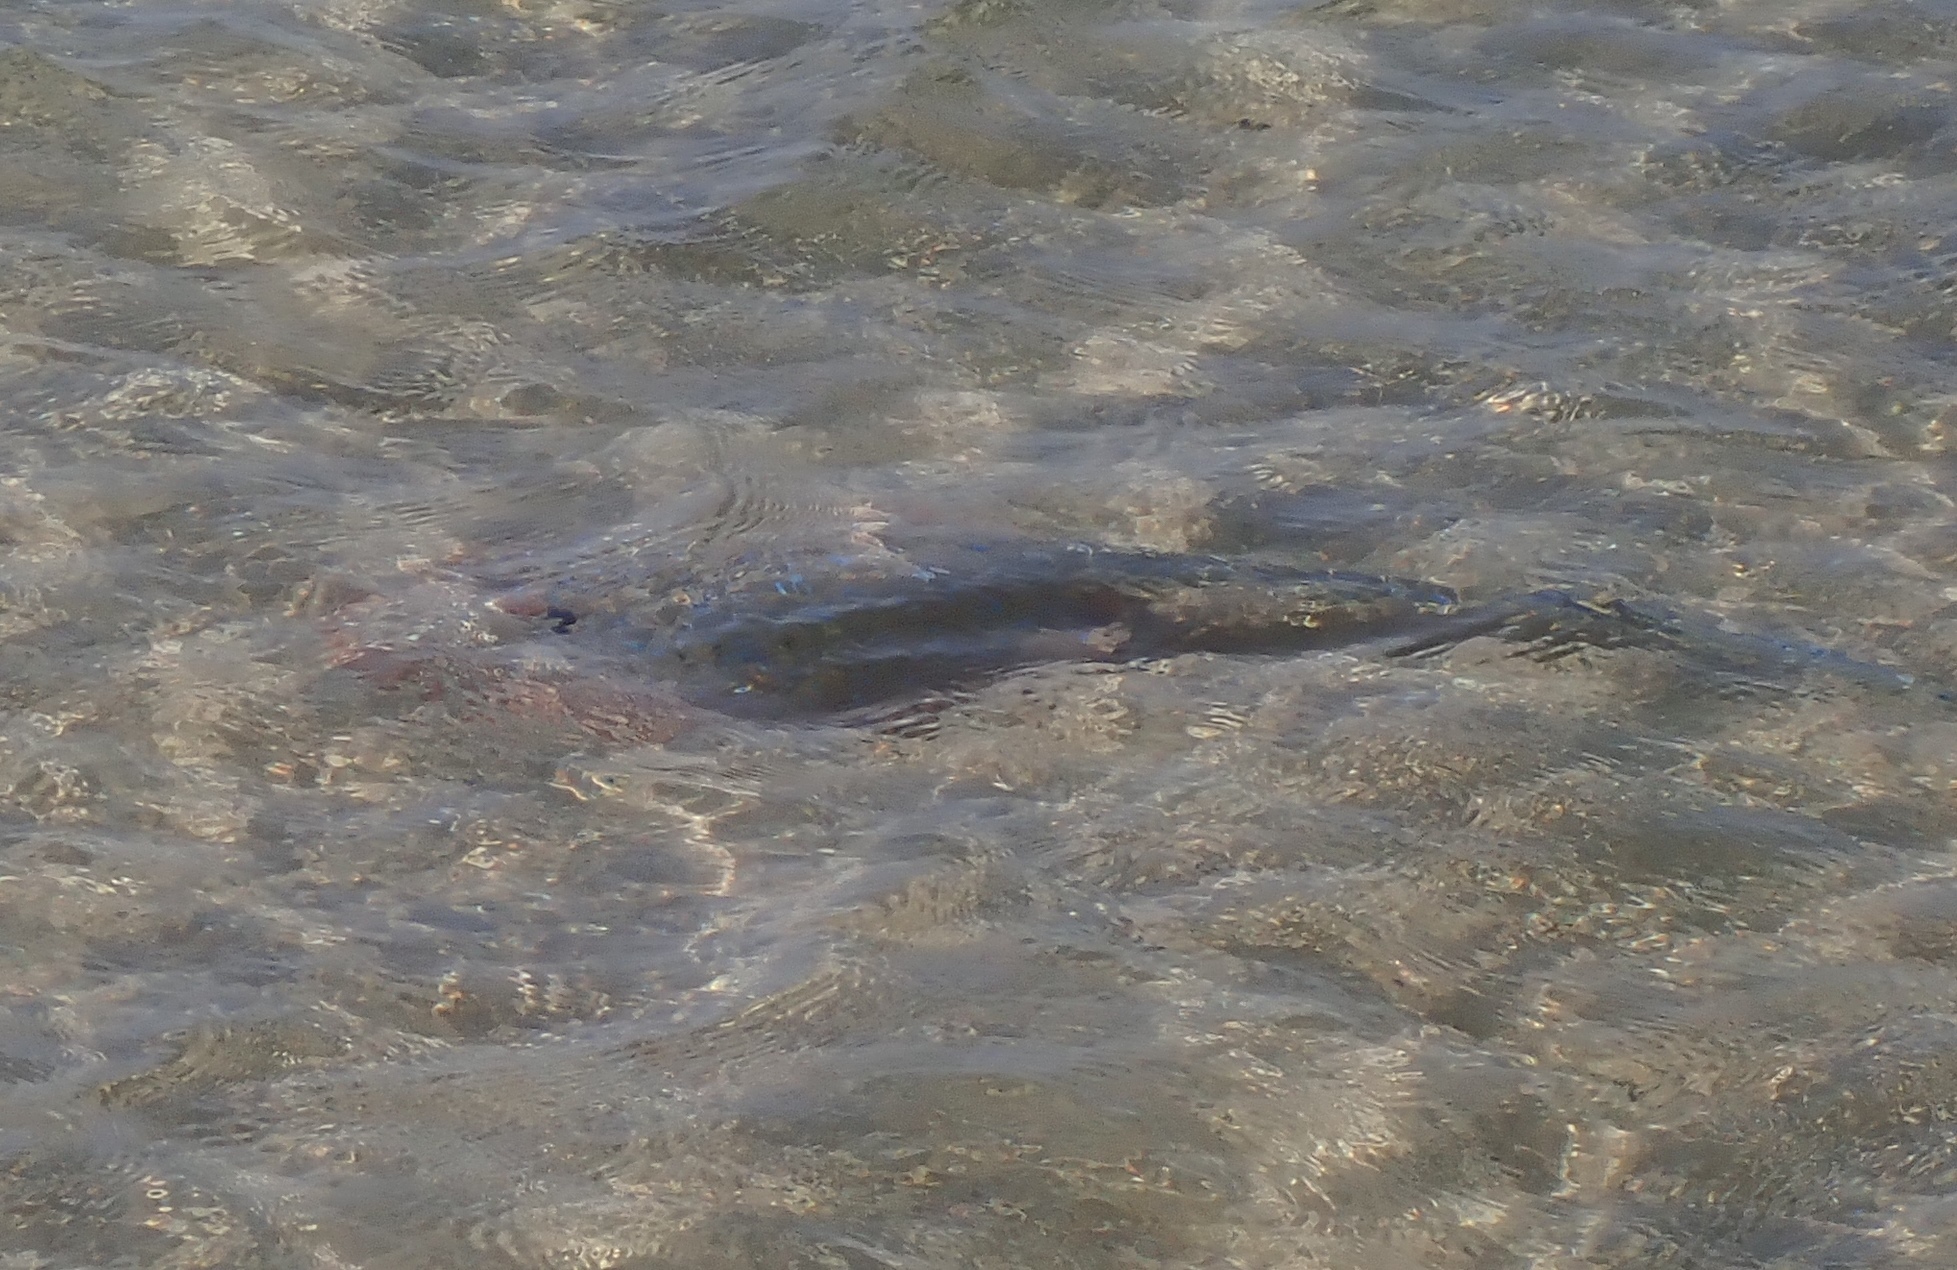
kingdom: Animalia
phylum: Chordata
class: Elasmobranchii
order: Myliobatiformes
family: Dasyatidae
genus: Taeniura
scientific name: Taeniura lymma
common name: Bluespotted ribbontail ray
